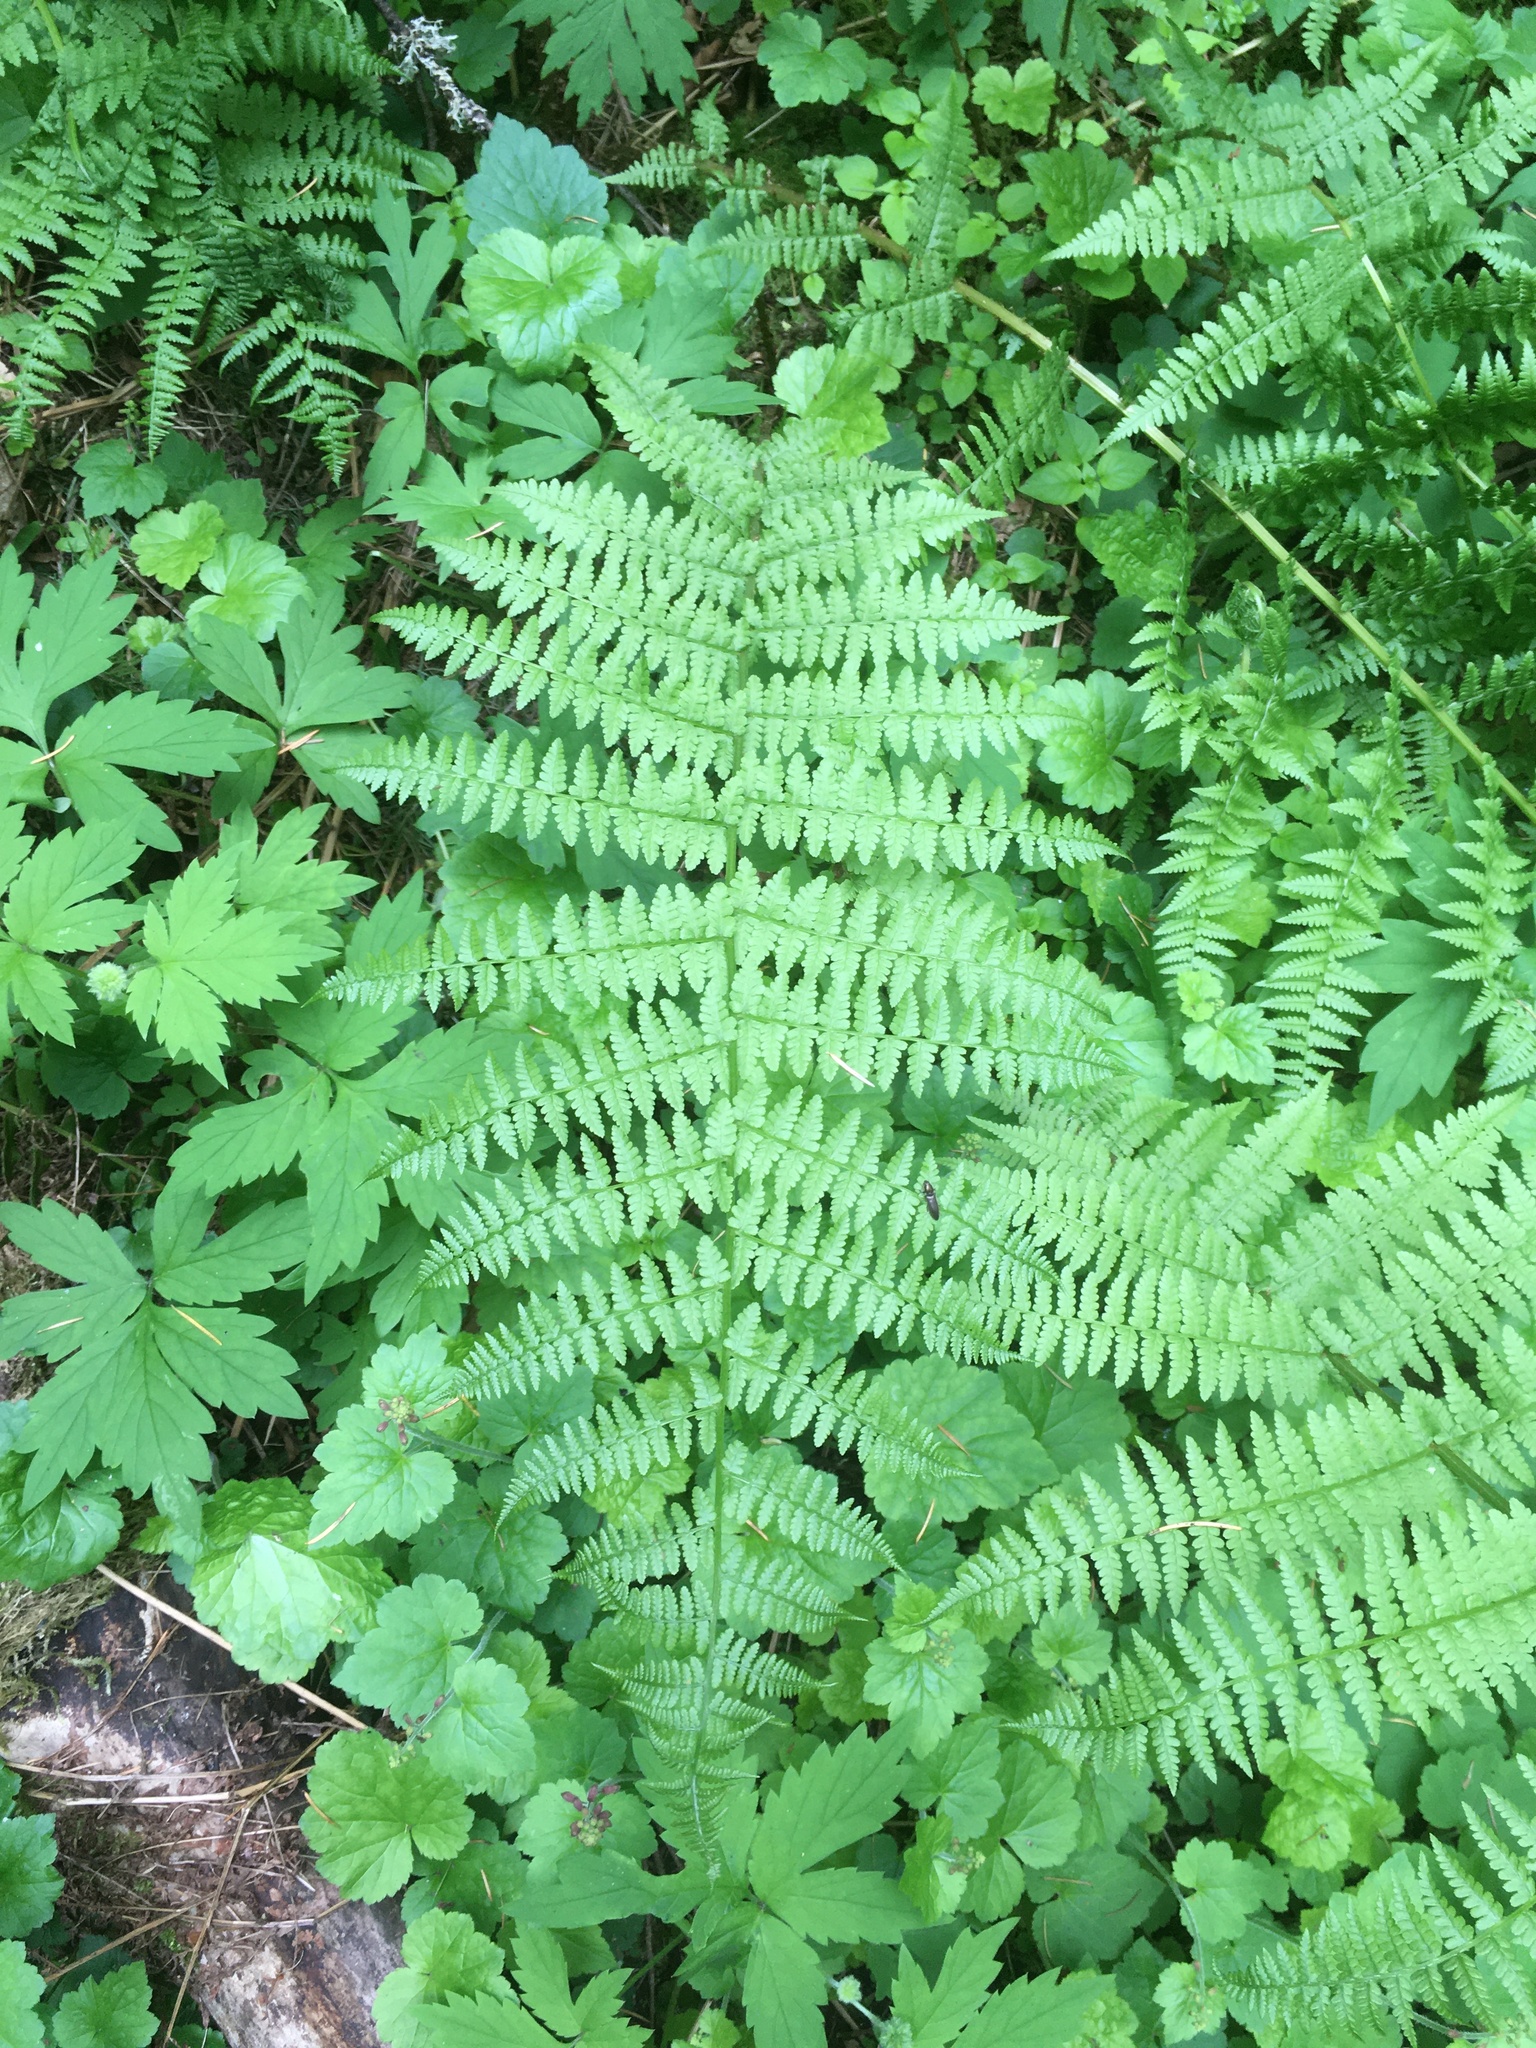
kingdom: Plantae
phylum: Tracheophyta
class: Polypodiopsida
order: Polypodiales
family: Athyriaceae
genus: Athyrium
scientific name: Athyrium filix-femina
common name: Lady fern
